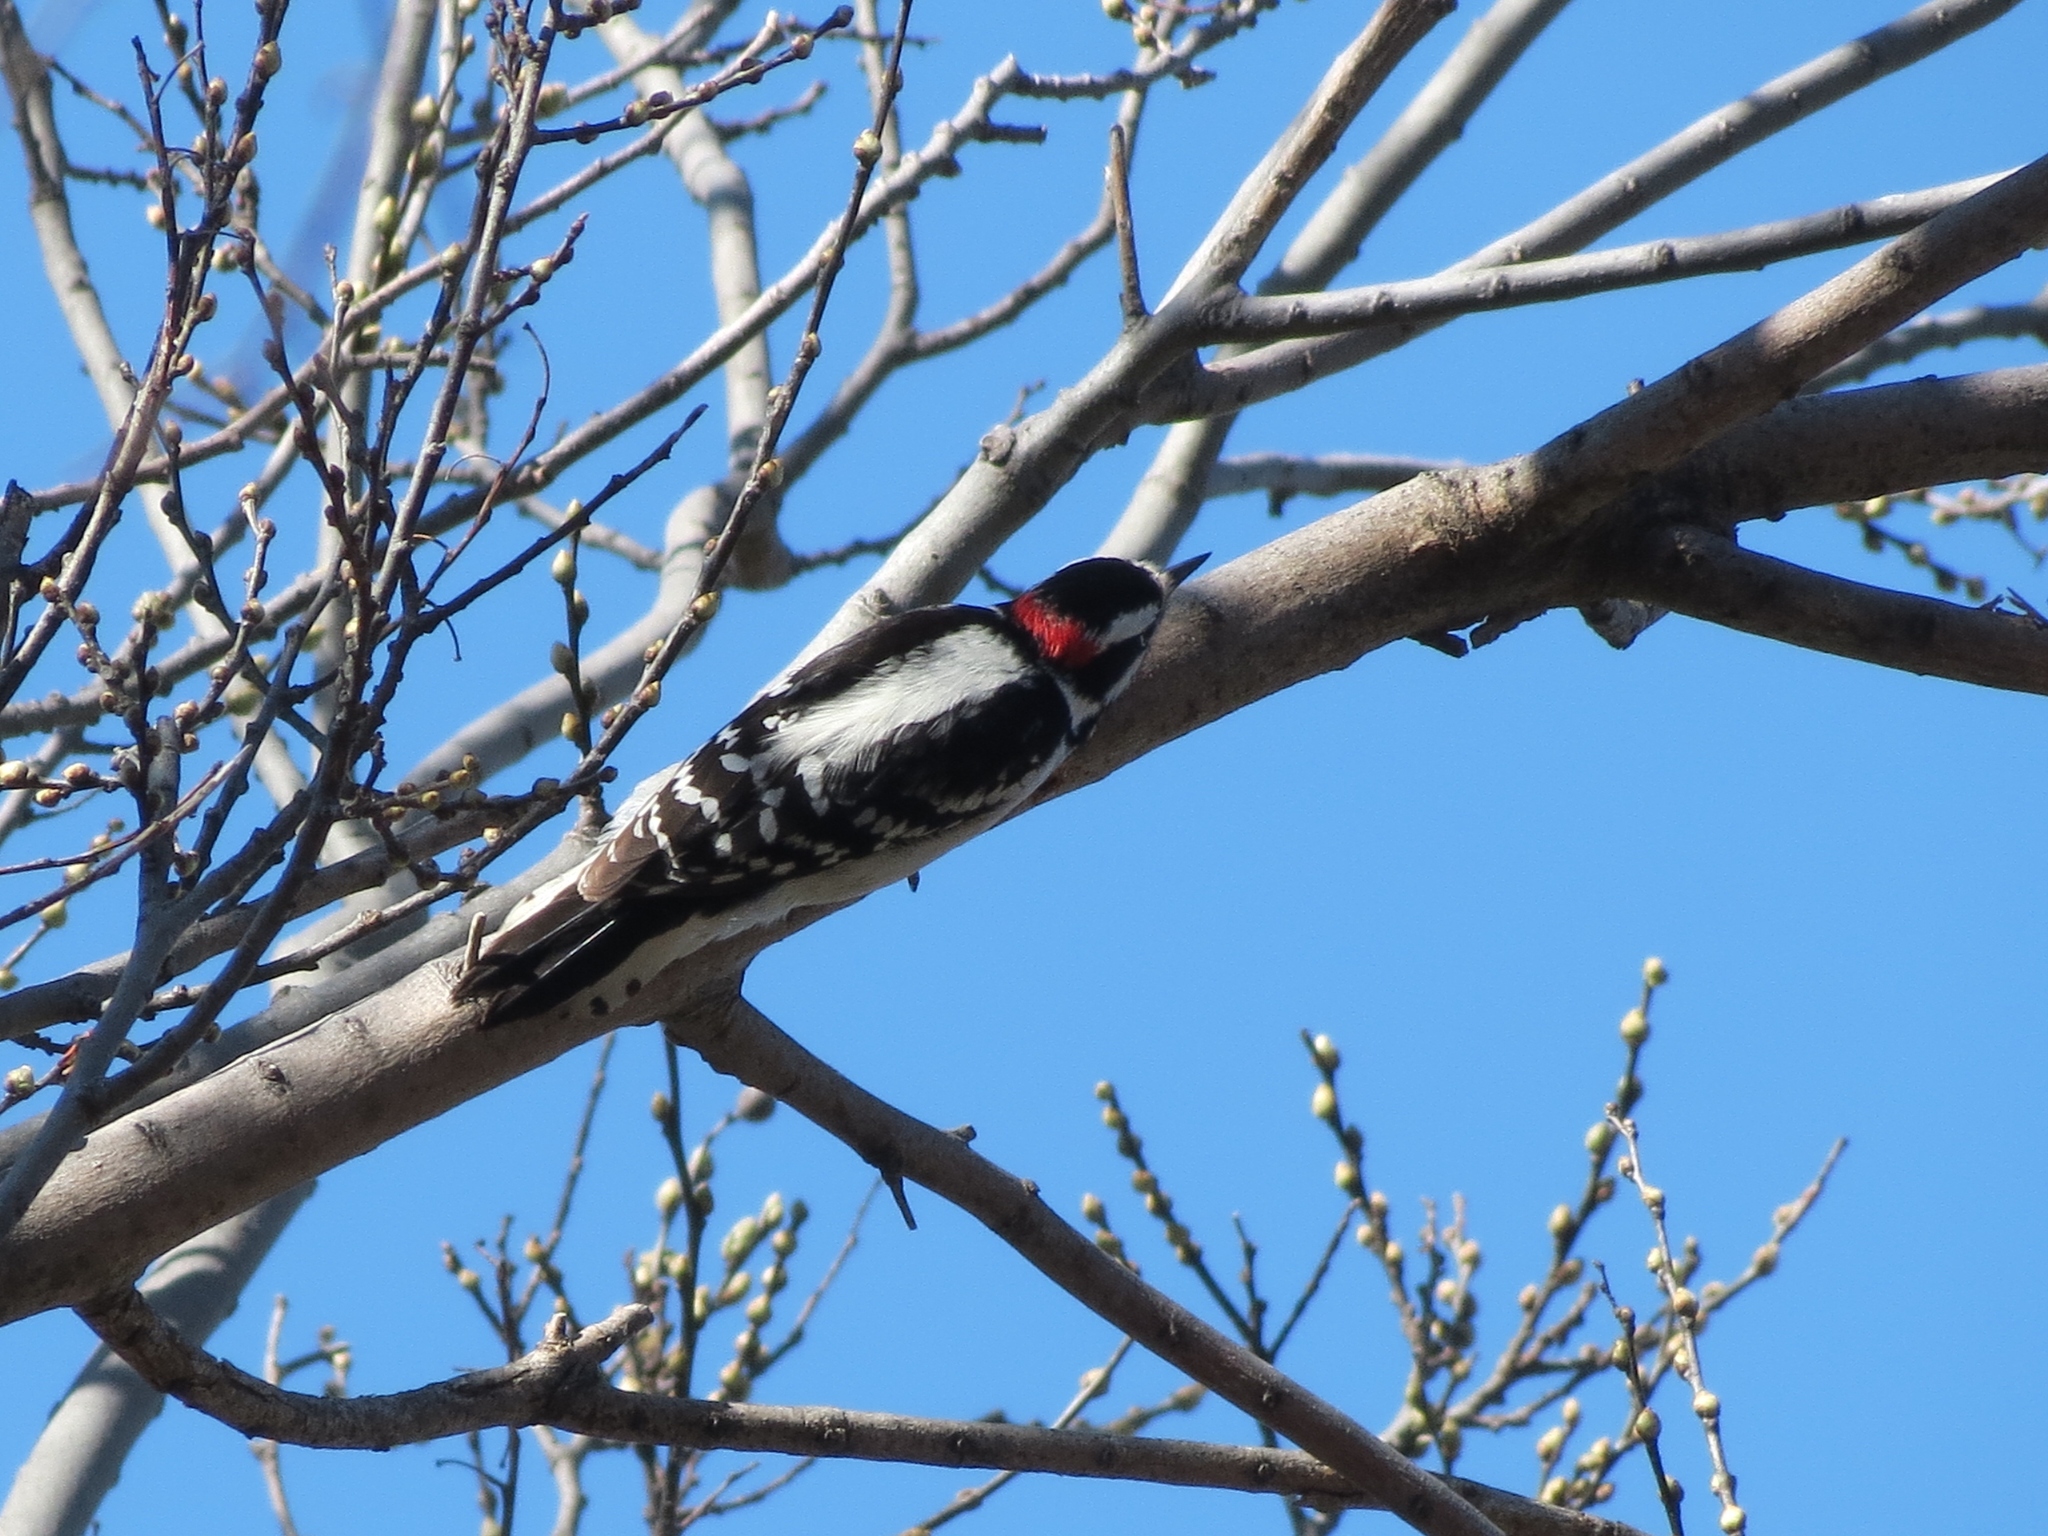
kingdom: Animalia
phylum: Chordata
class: Aves
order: Piciformes
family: Picidae
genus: Dryobates
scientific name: Dryobates pubescens
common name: Downy woodpecker
